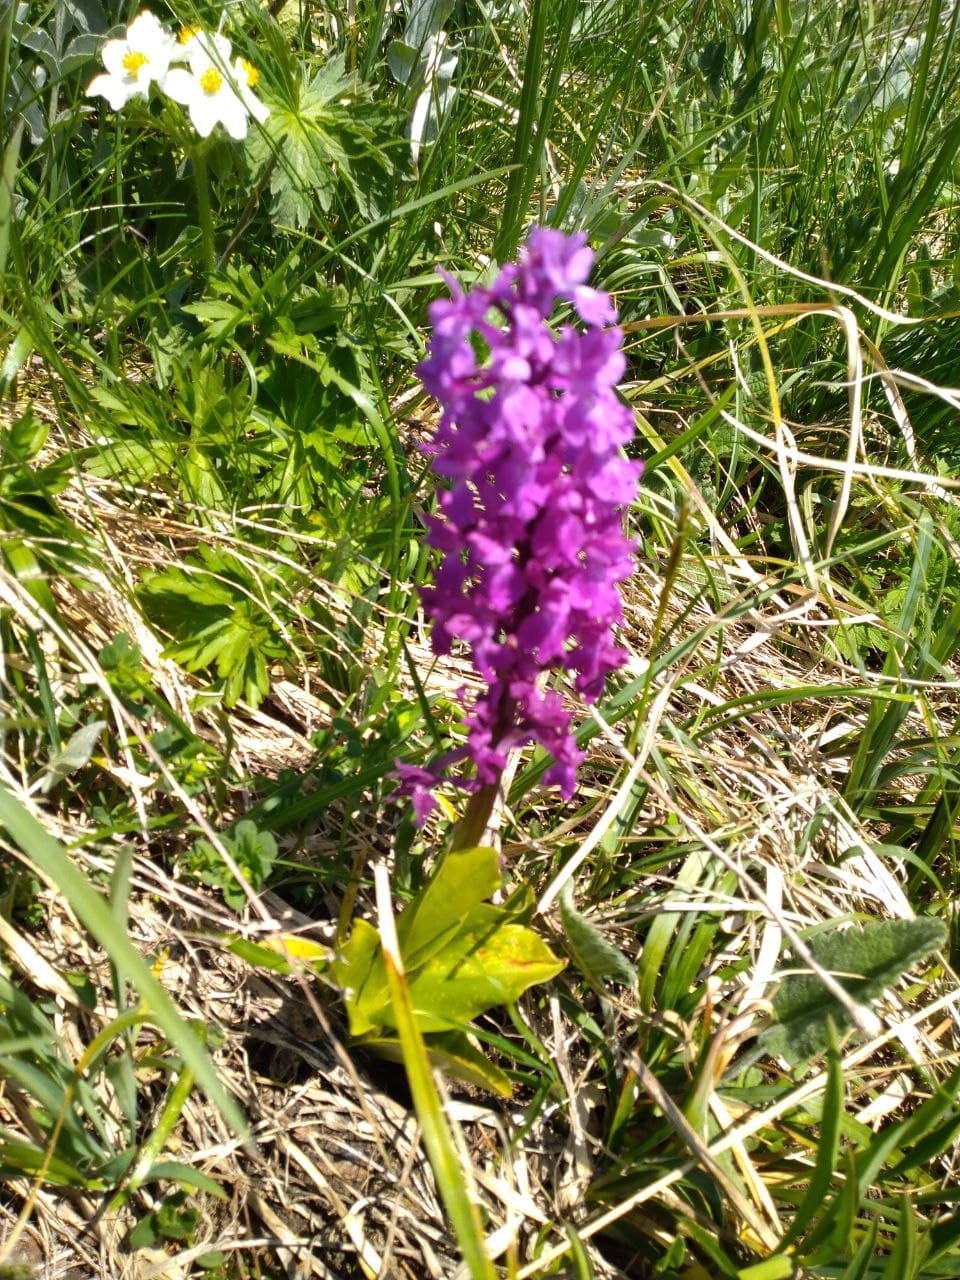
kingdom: Plantae
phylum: Tracheophyta
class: Liliopsida
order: Asparagales
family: Orchidaceae
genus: Orchis
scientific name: Orchis mascula
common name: Early-purple orchid
